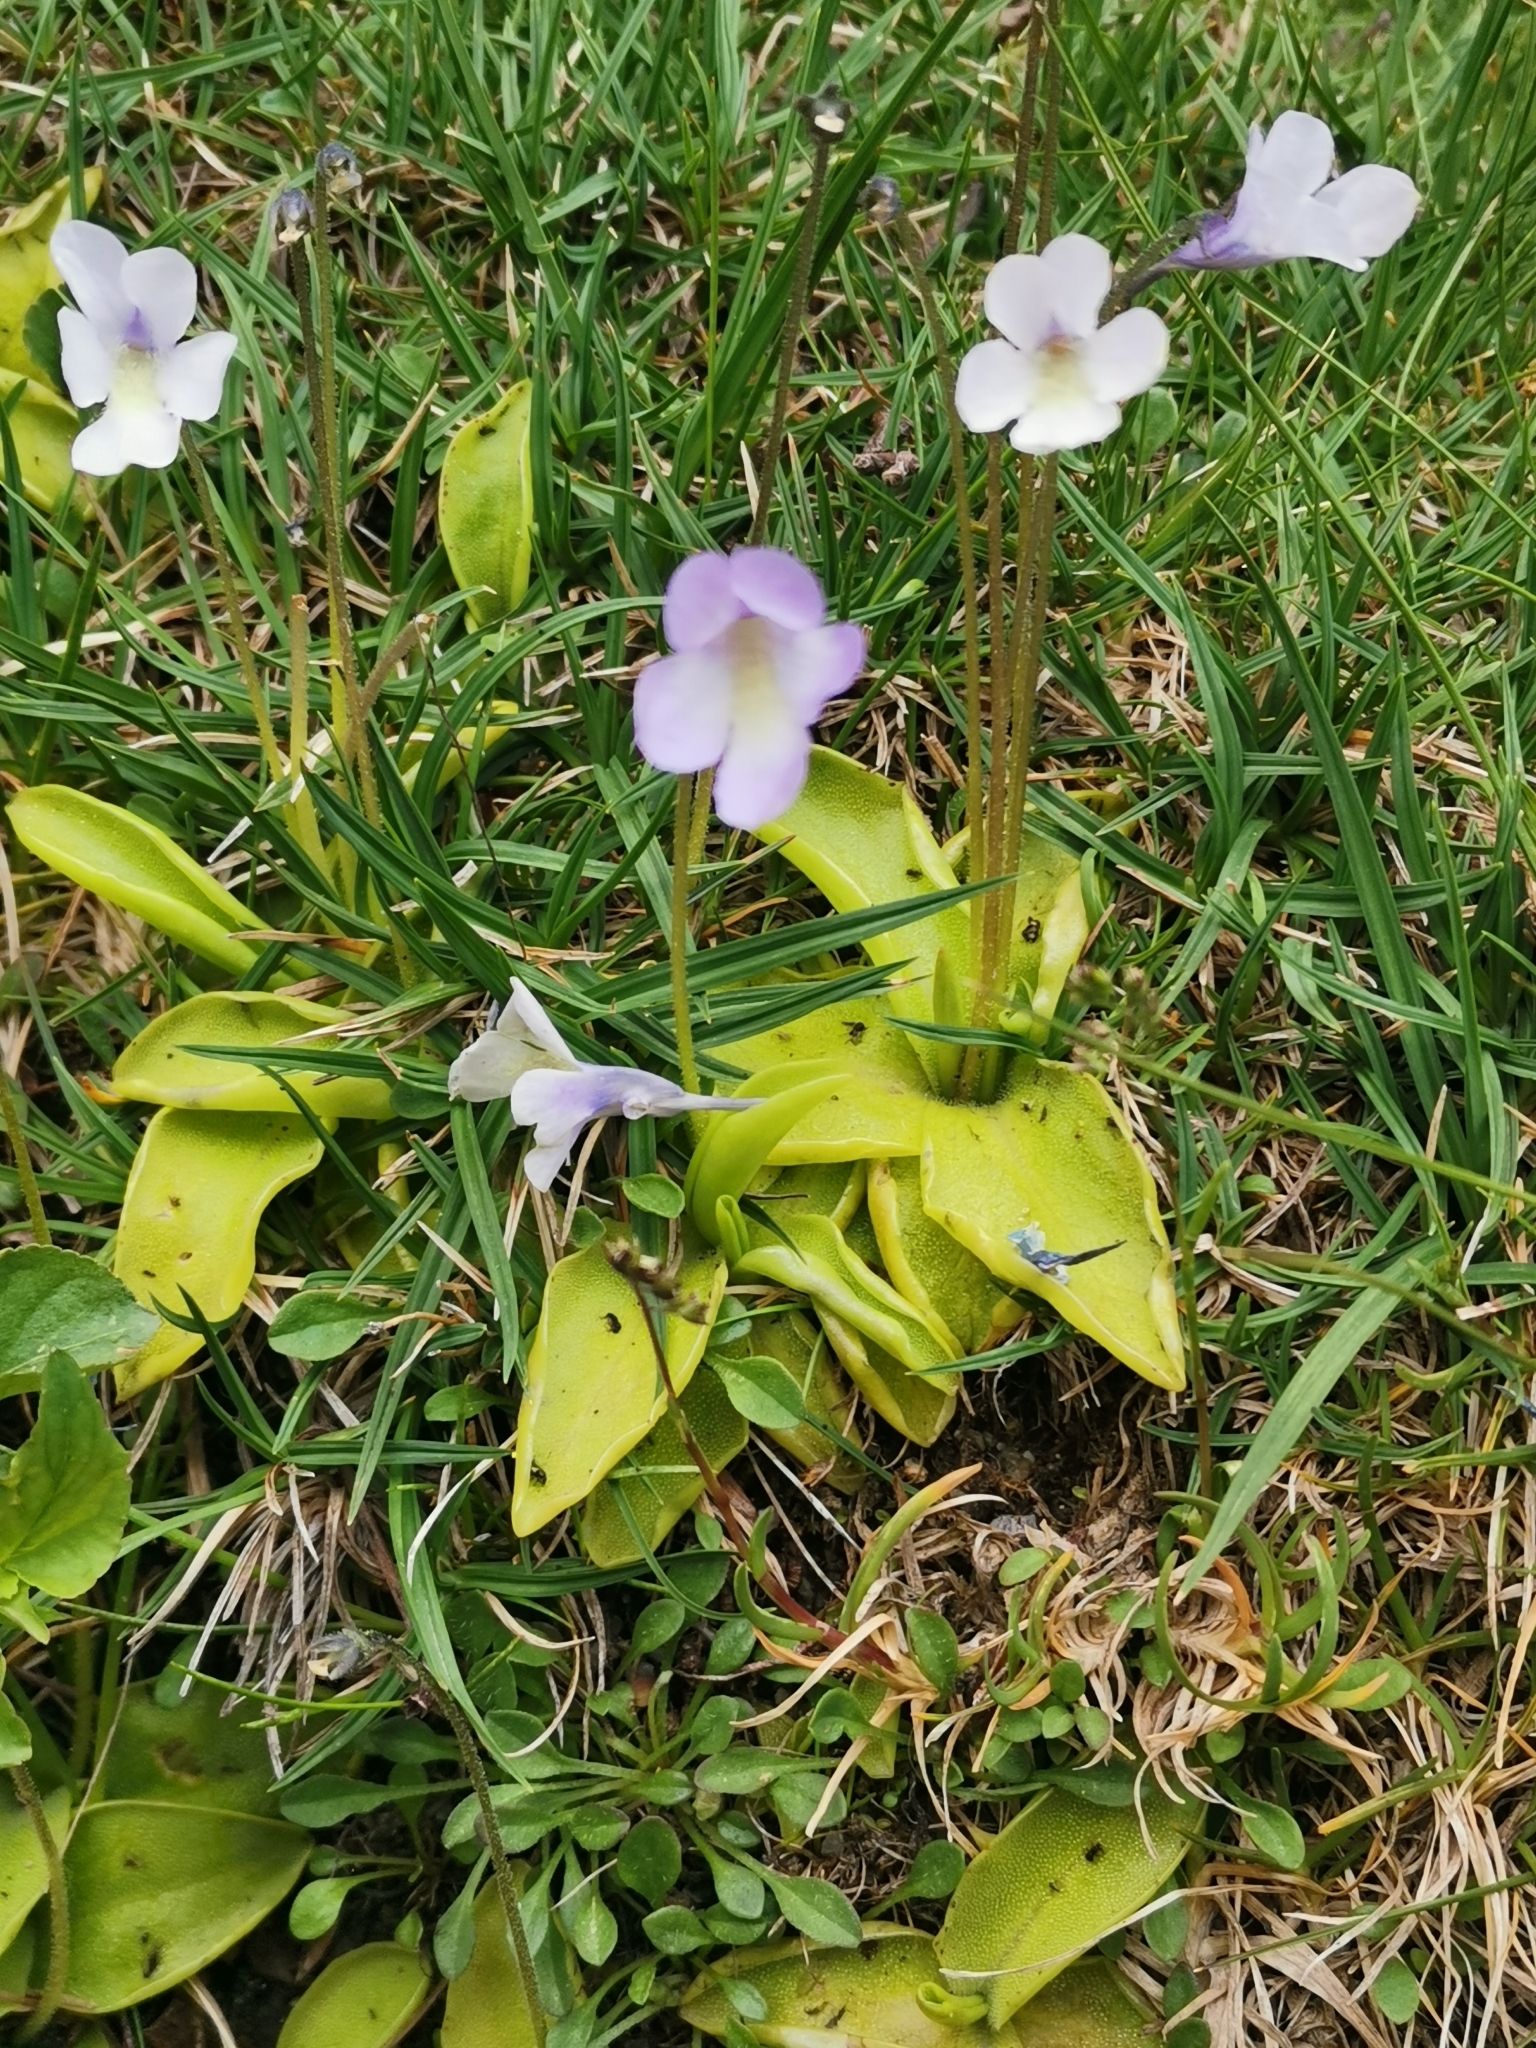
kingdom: Plantae
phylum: Tracheophyta
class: Magnoliopsida
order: Lamiales
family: Lentibulariaceae
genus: Pinguicula
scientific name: Pinguicula corsica
